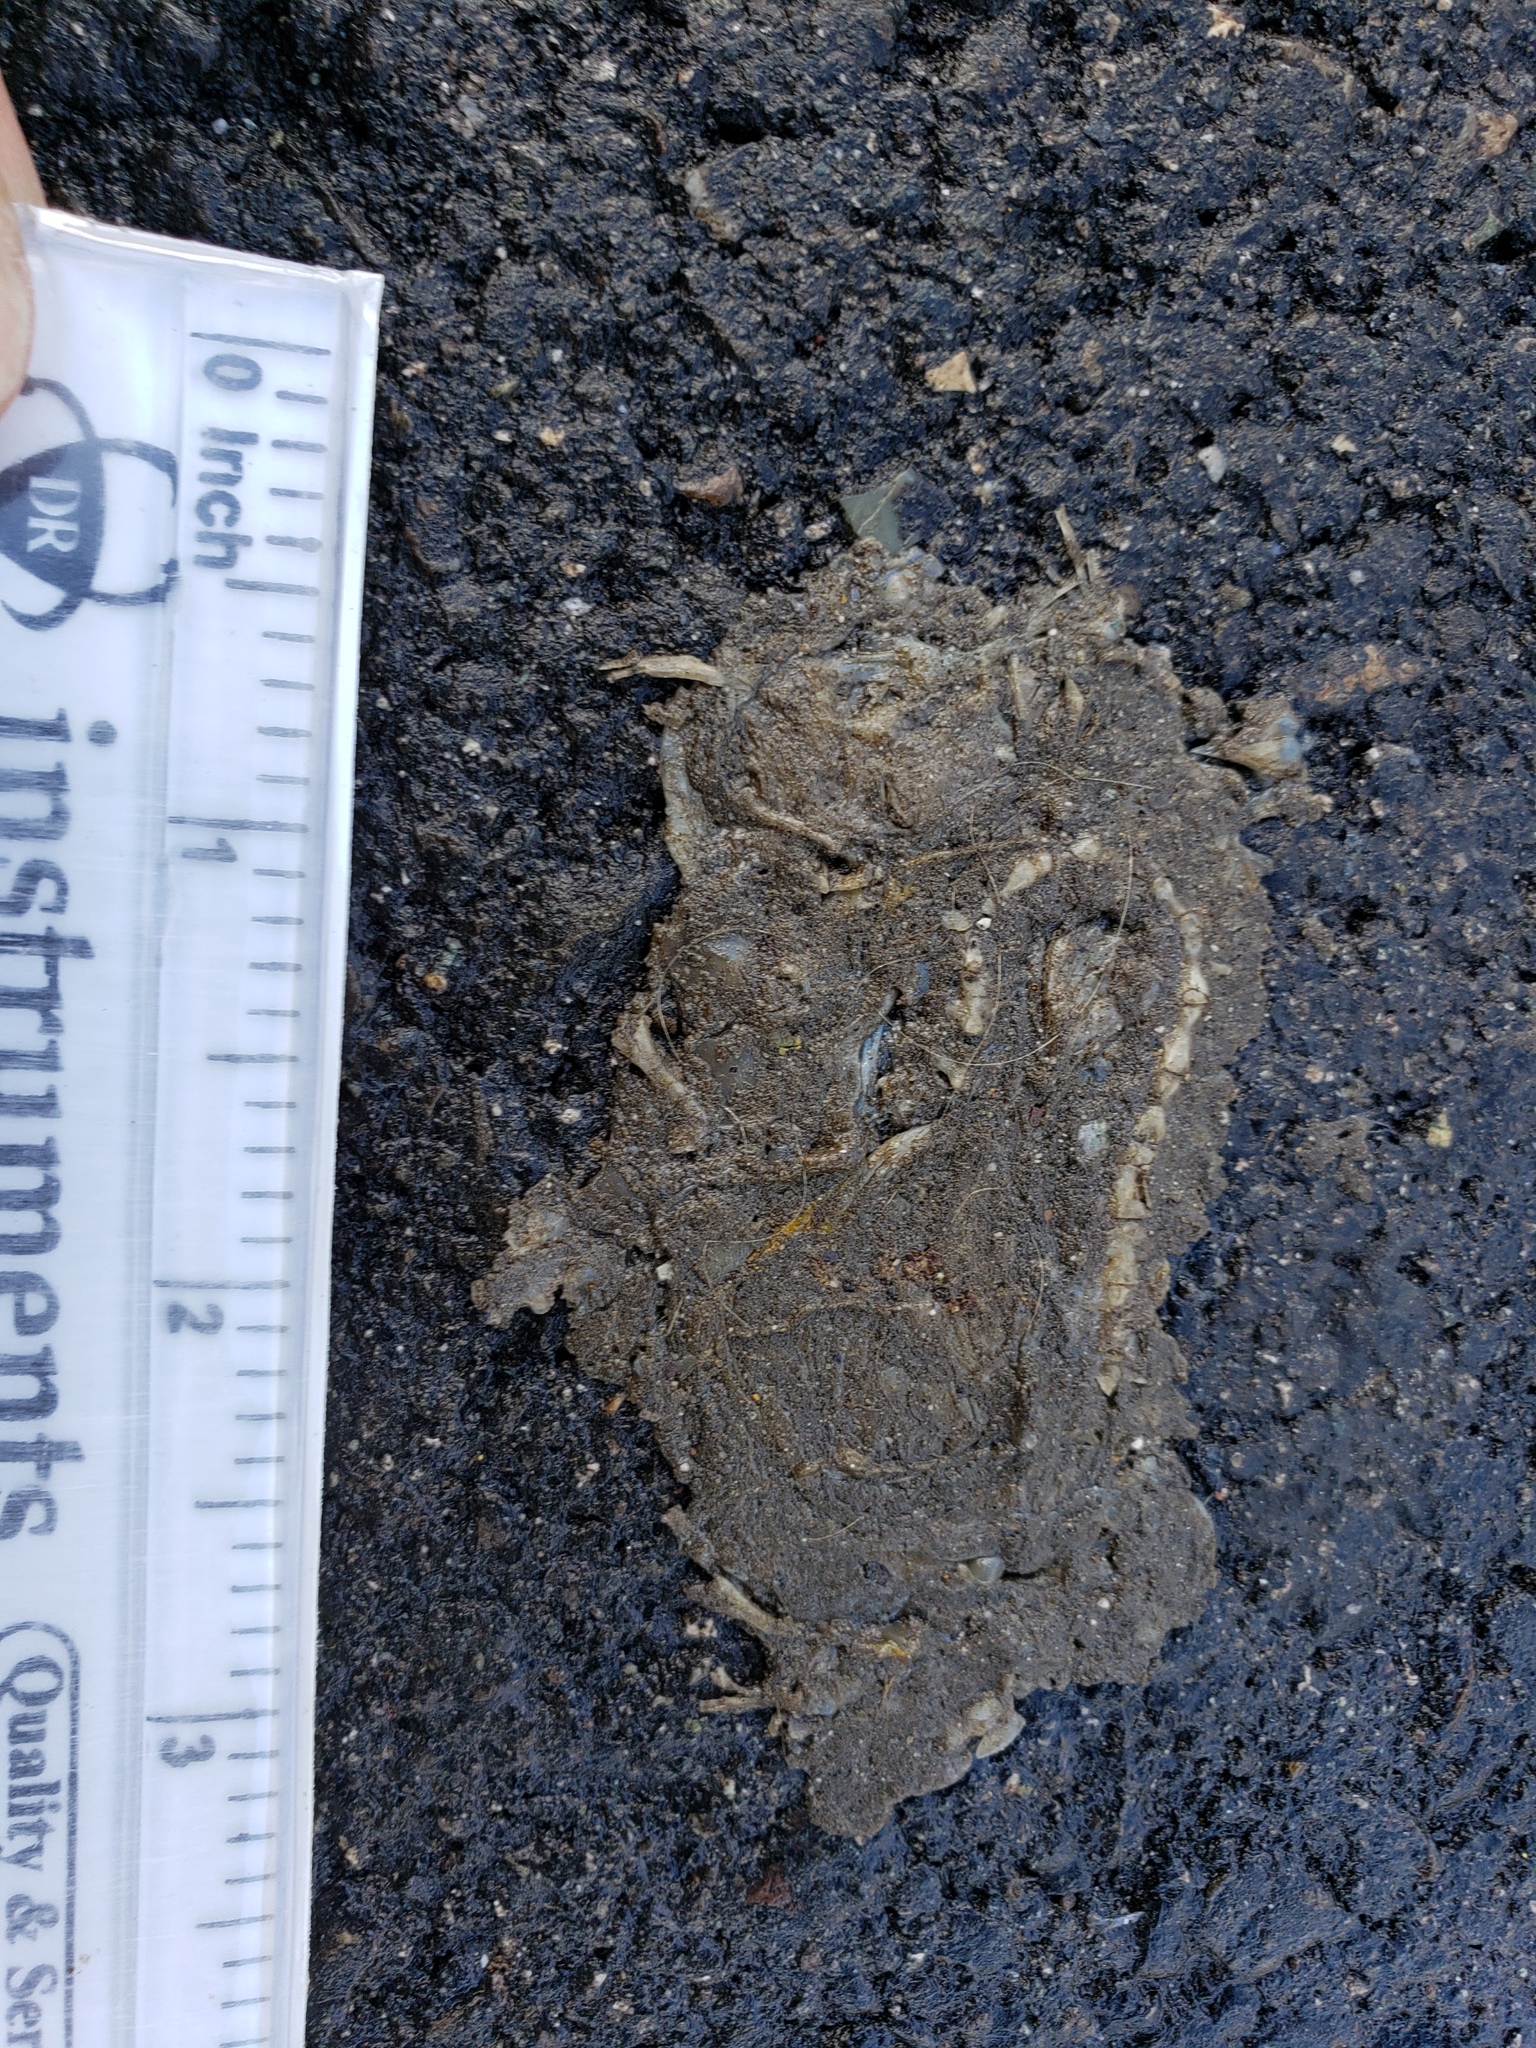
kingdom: Animalia
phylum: Chordata
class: Amphibia
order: Caudata
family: Salamandridae
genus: Taricha
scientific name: Taricha
